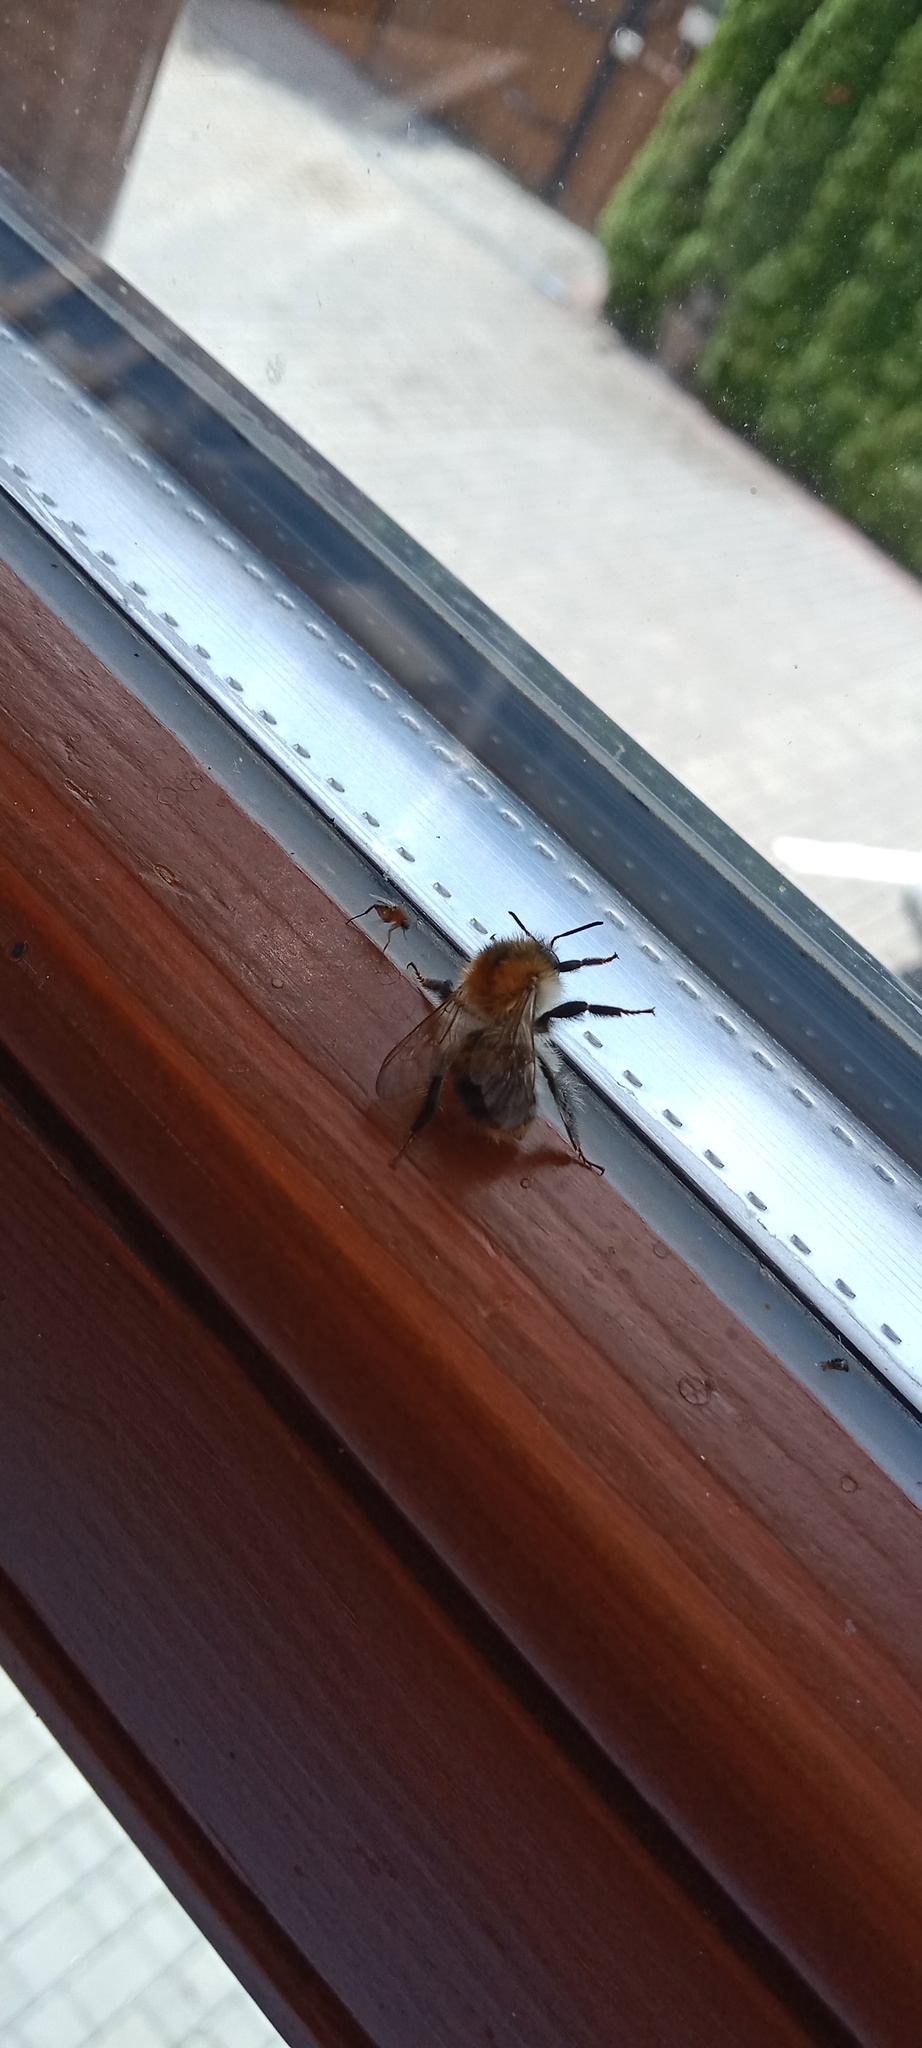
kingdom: Animalia
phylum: Arthropoda
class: Insecta
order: Hymenoptera
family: Apidae
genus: Bombus
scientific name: Bombus pascuorum
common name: Common carder bee
